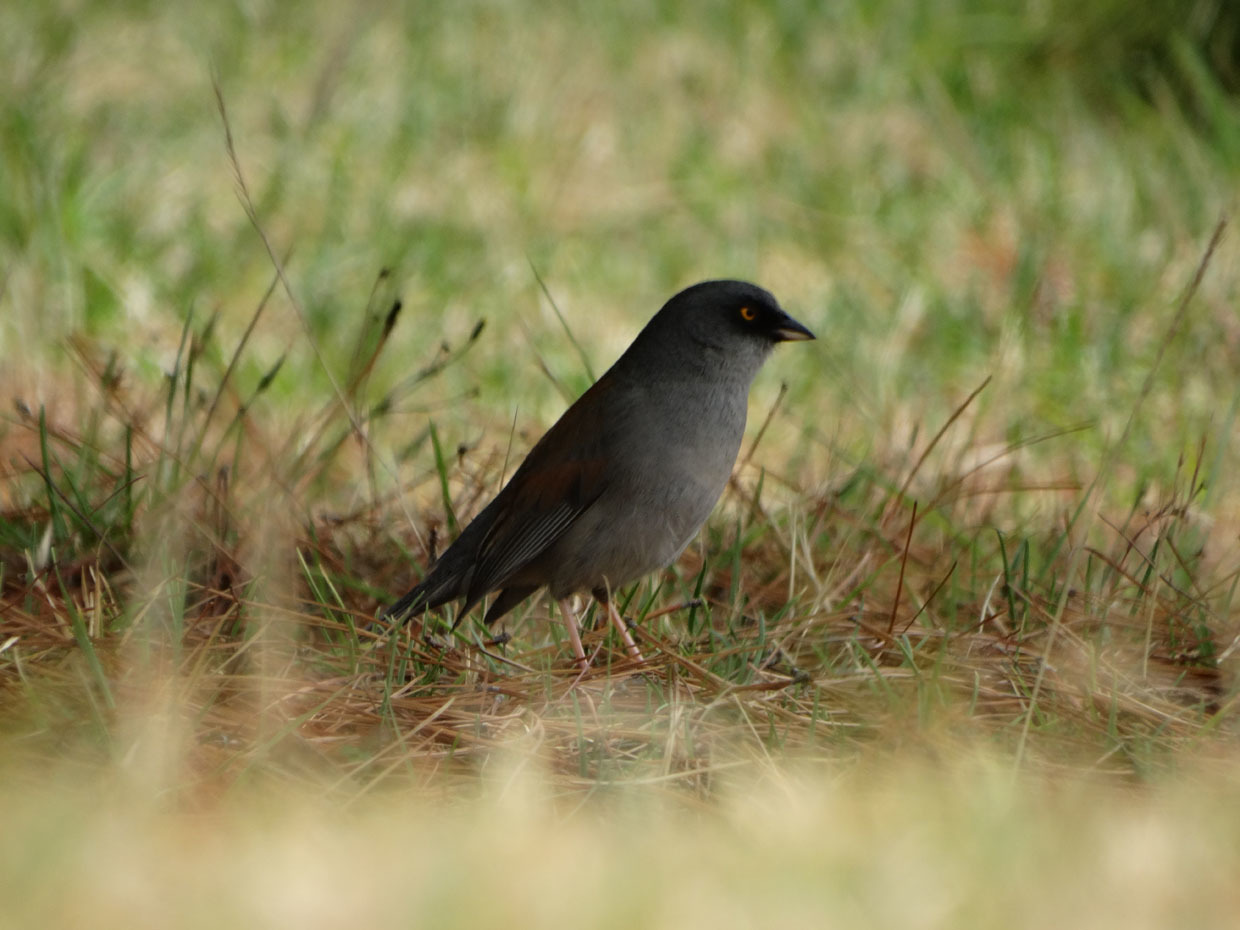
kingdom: Animalia
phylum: Chordata
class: Aves
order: Passeriformes
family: Passerellidae
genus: Junco
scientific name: Junco phaeonotus
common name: Yellow-eyed junco
